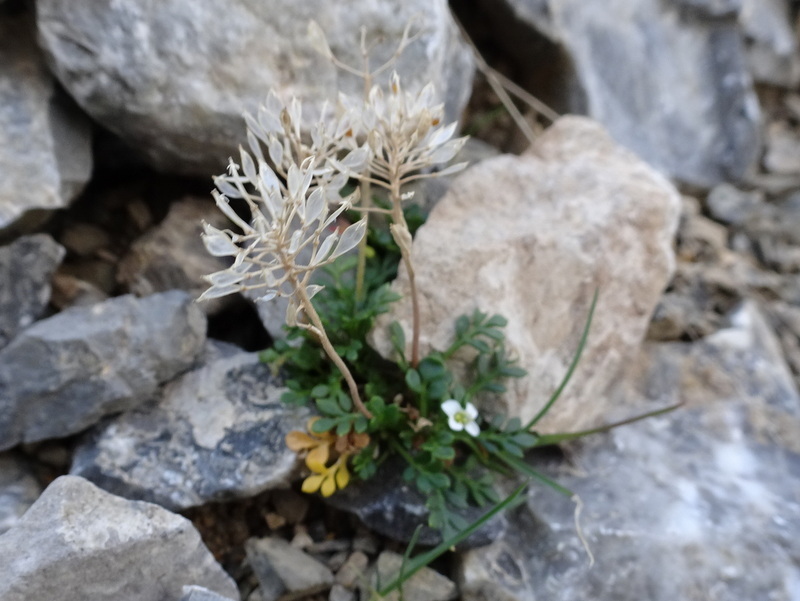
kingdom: Plantae
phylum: Tracheophyta
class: Magnoliopsida
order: Brassicales
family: Brassicaceae
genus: Hornungia
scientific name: Hornungia alpina
